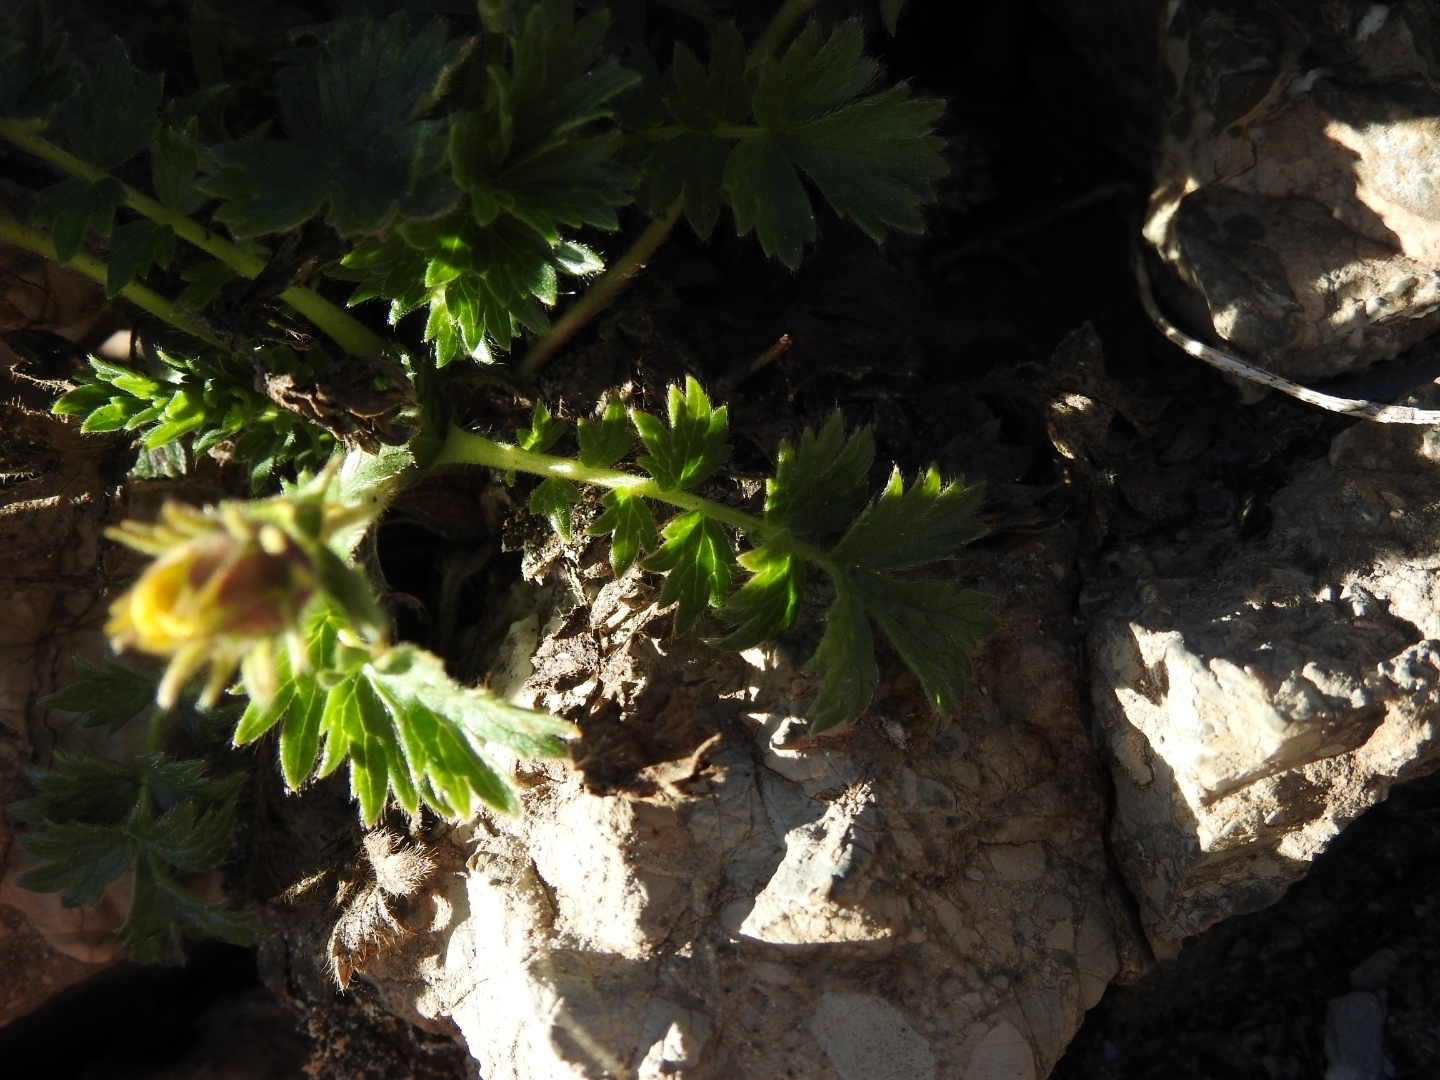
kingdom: Plantae
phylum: Tracheophyta
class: Magnoliopsida
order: Rosales
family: Rosaceae
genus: Geum
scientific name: Geum reptans
